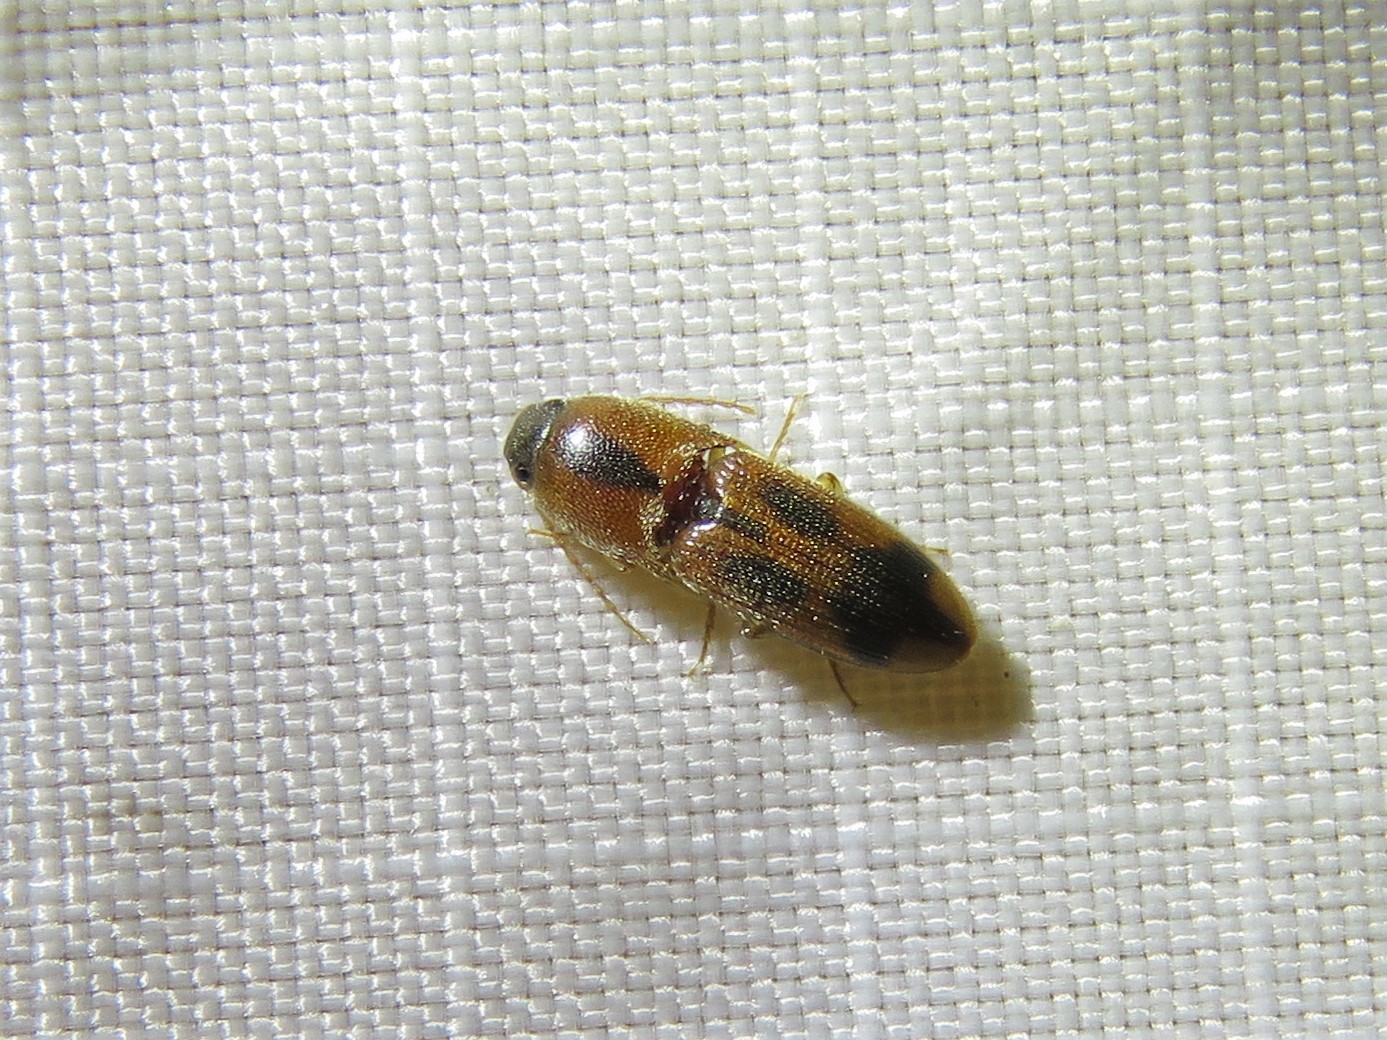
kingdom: Animalia
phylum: Arthropoda
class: Insecta
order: Coleoptera
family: Elateridae
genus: Aeolus
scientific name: Aeolus mellillus
